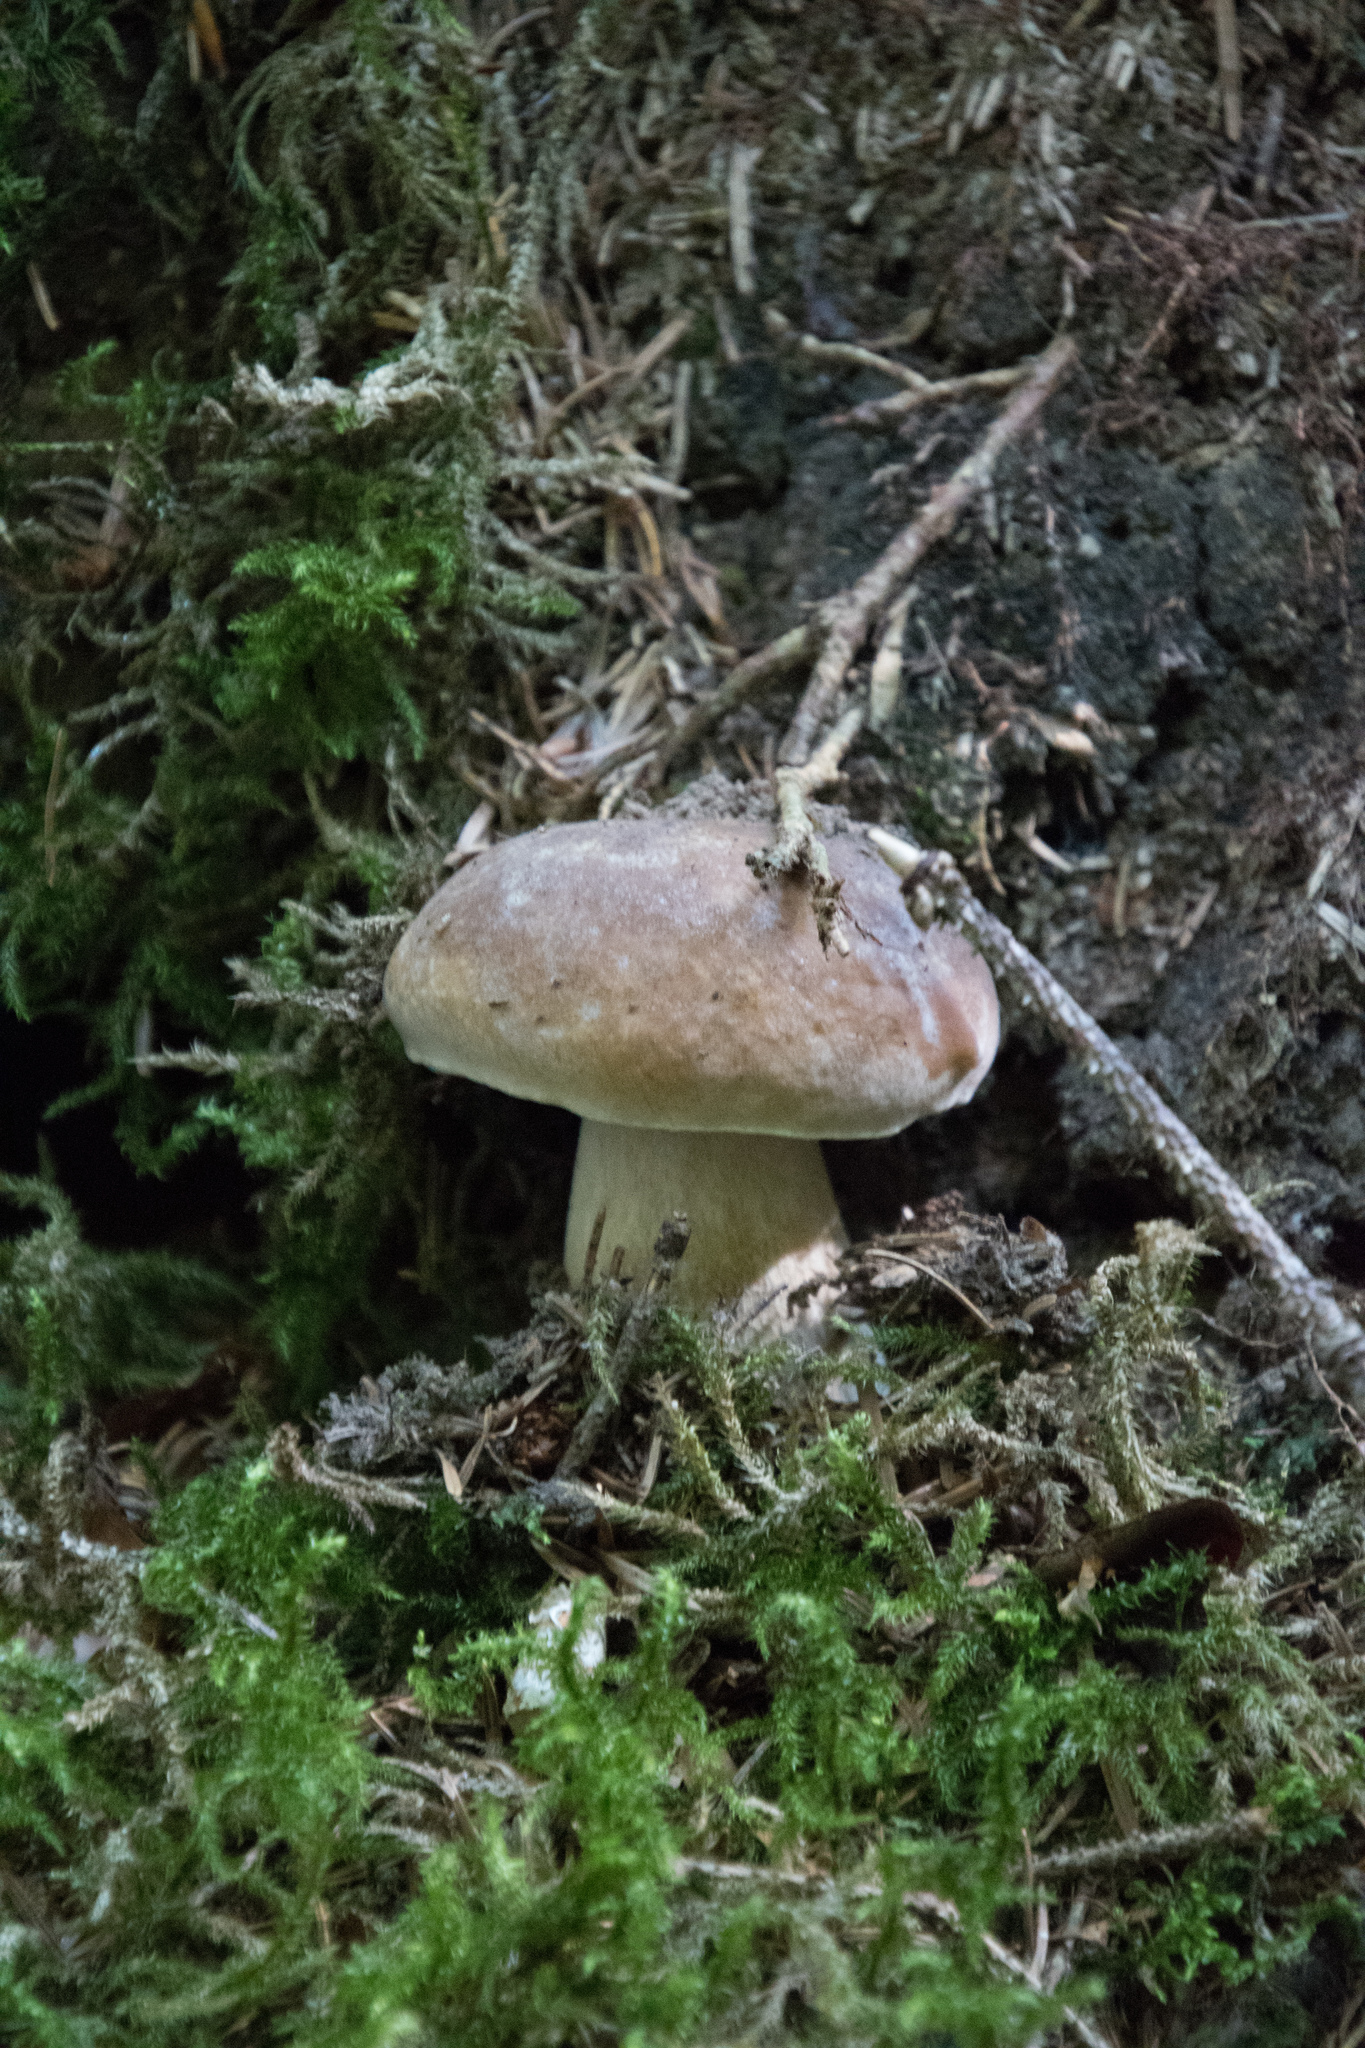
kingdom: Fungi
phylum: Basidiomycota
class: Agaricomycetes
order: Boletales
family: Boletaceae
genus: Boletus
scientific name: Boletus edulis
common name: Cep
